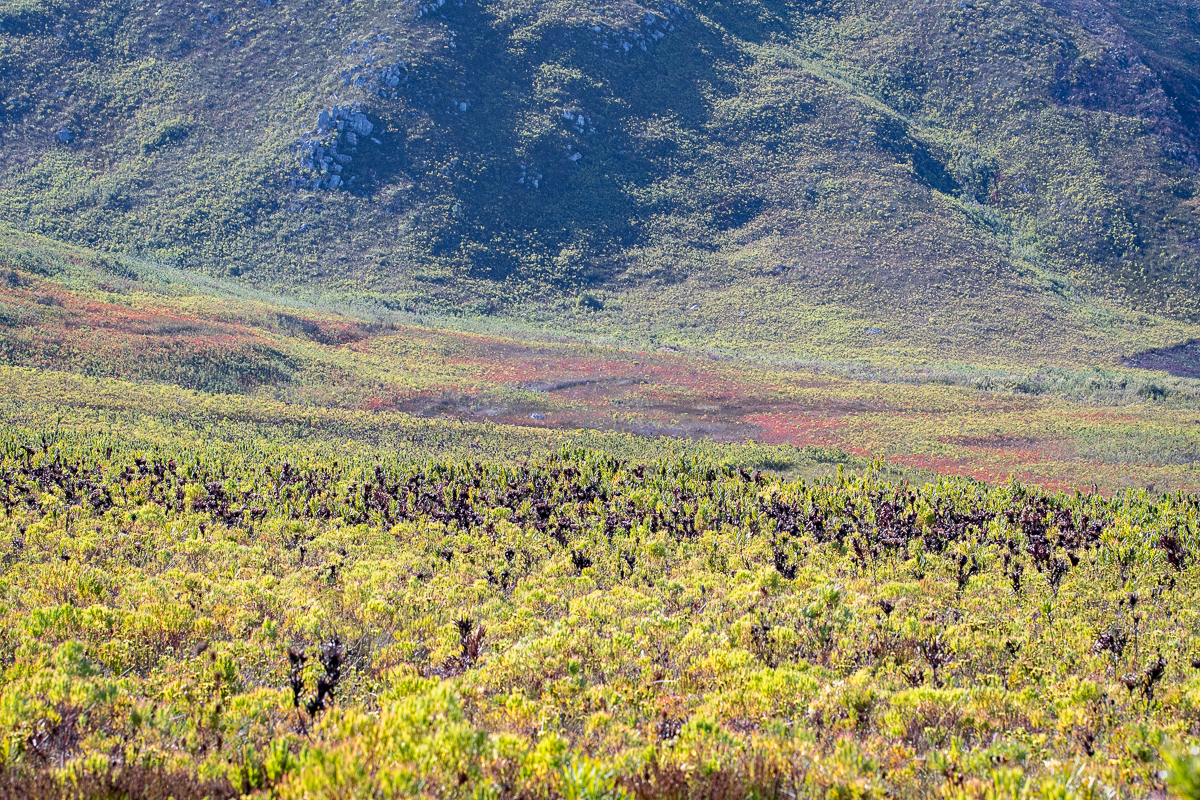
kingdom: Plantae
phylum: Tracheophyta
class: Magnoliopsida
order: Ericales
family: Ericaceae
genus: Erica
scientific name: Erica pillansii
